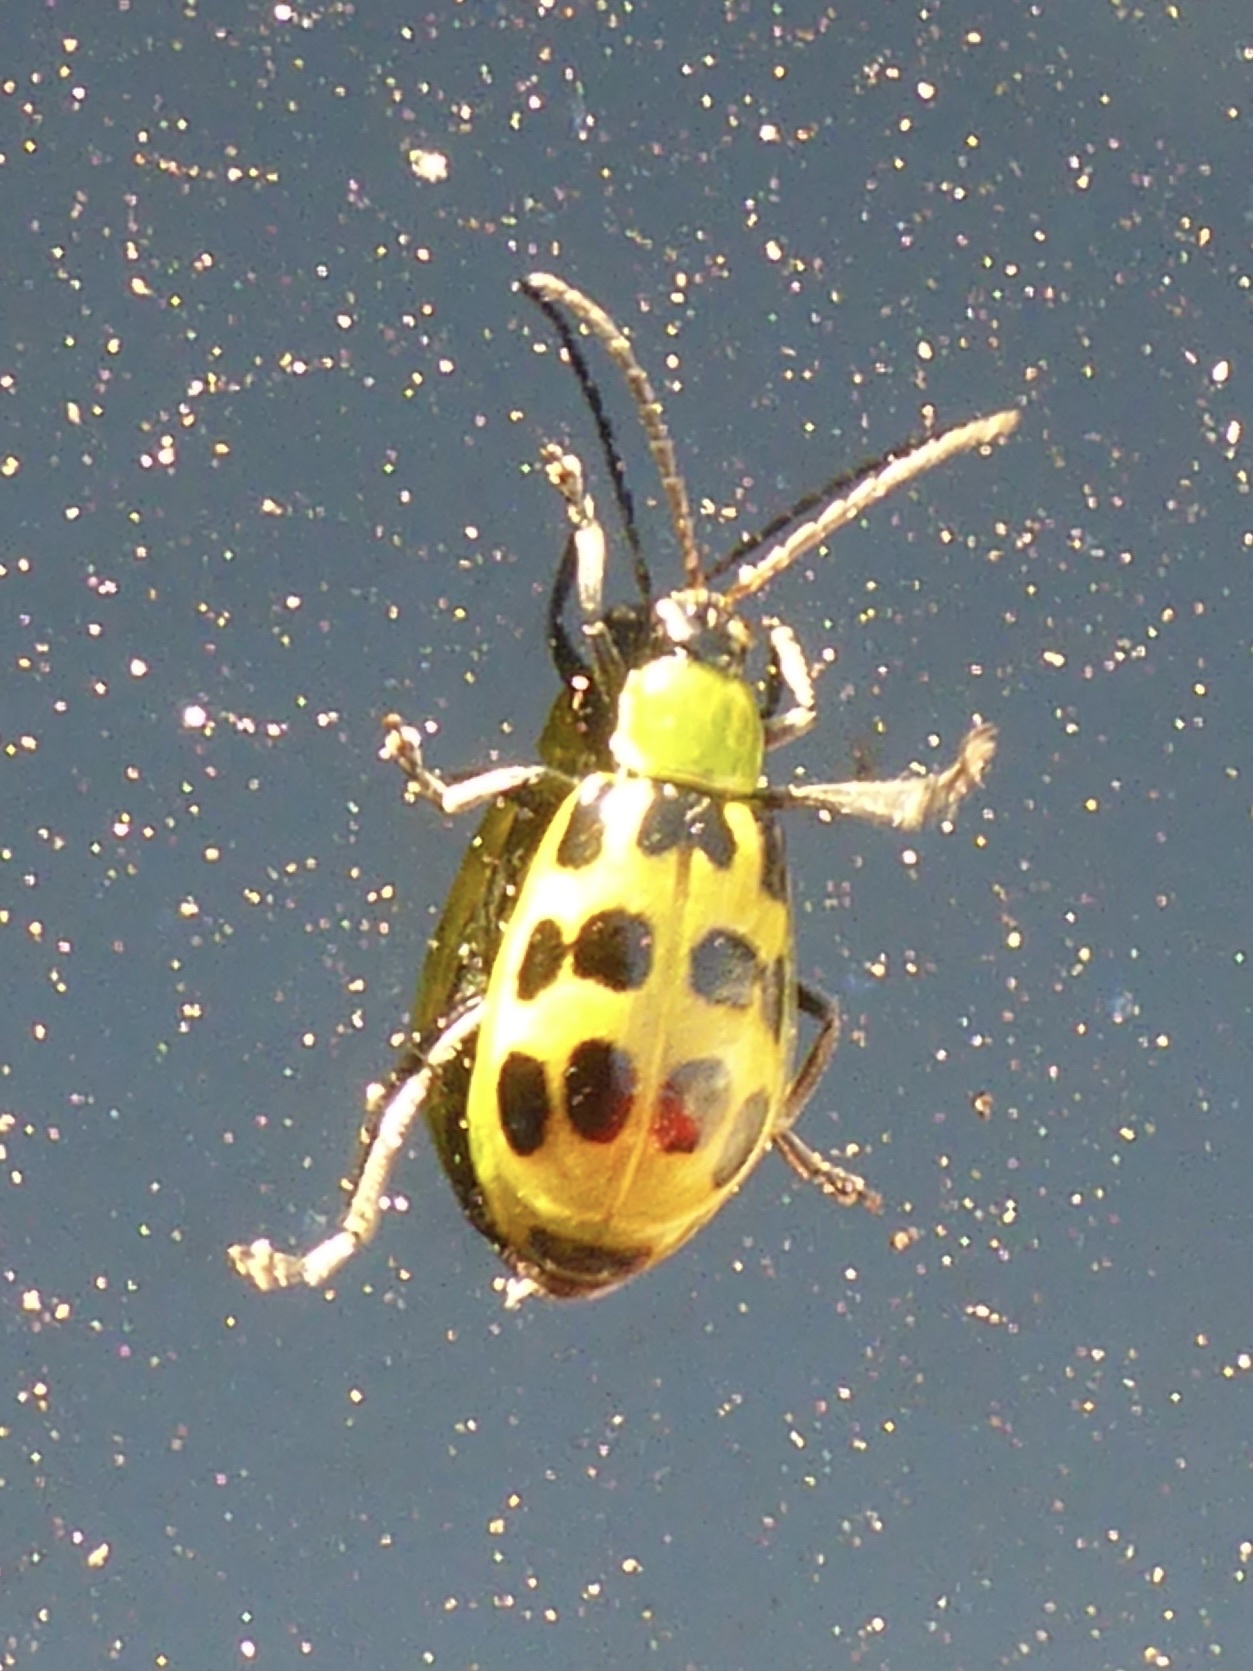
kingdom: Animalia
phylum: Arthropoda
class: Insecta
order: Coleoptera
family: Chrysomelidae
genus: Diabrotica
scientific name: Diabrotica undecimpunctata
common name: Spotted cucumber beetle
